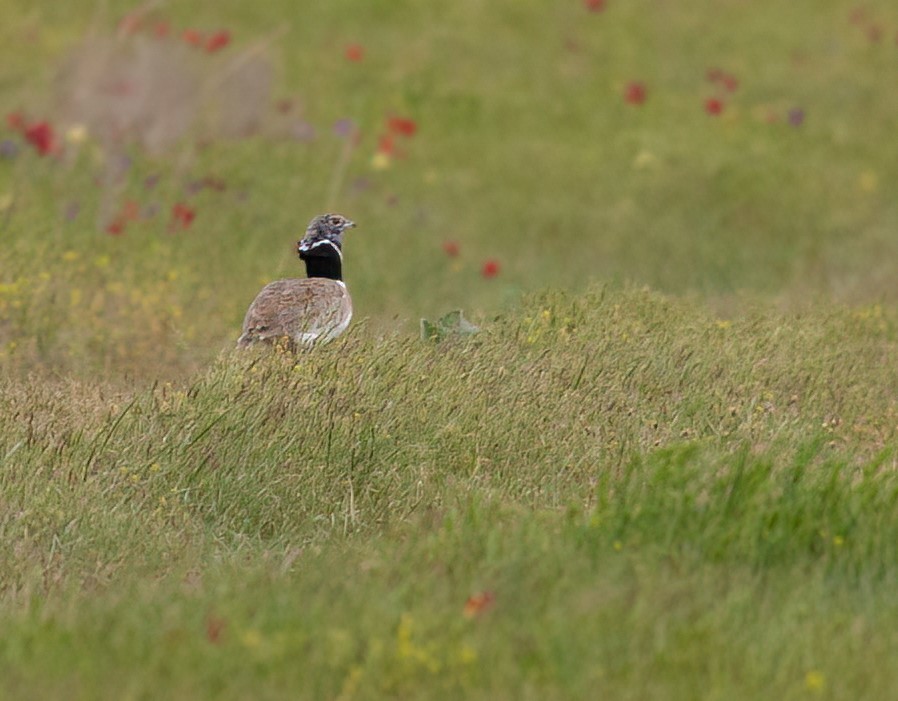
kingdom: Animalia
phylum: Chordata
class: Aves
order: Otidiformes
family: Otididae
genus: Tetrax
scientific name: Tetrax tetrax
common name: Little bustard
